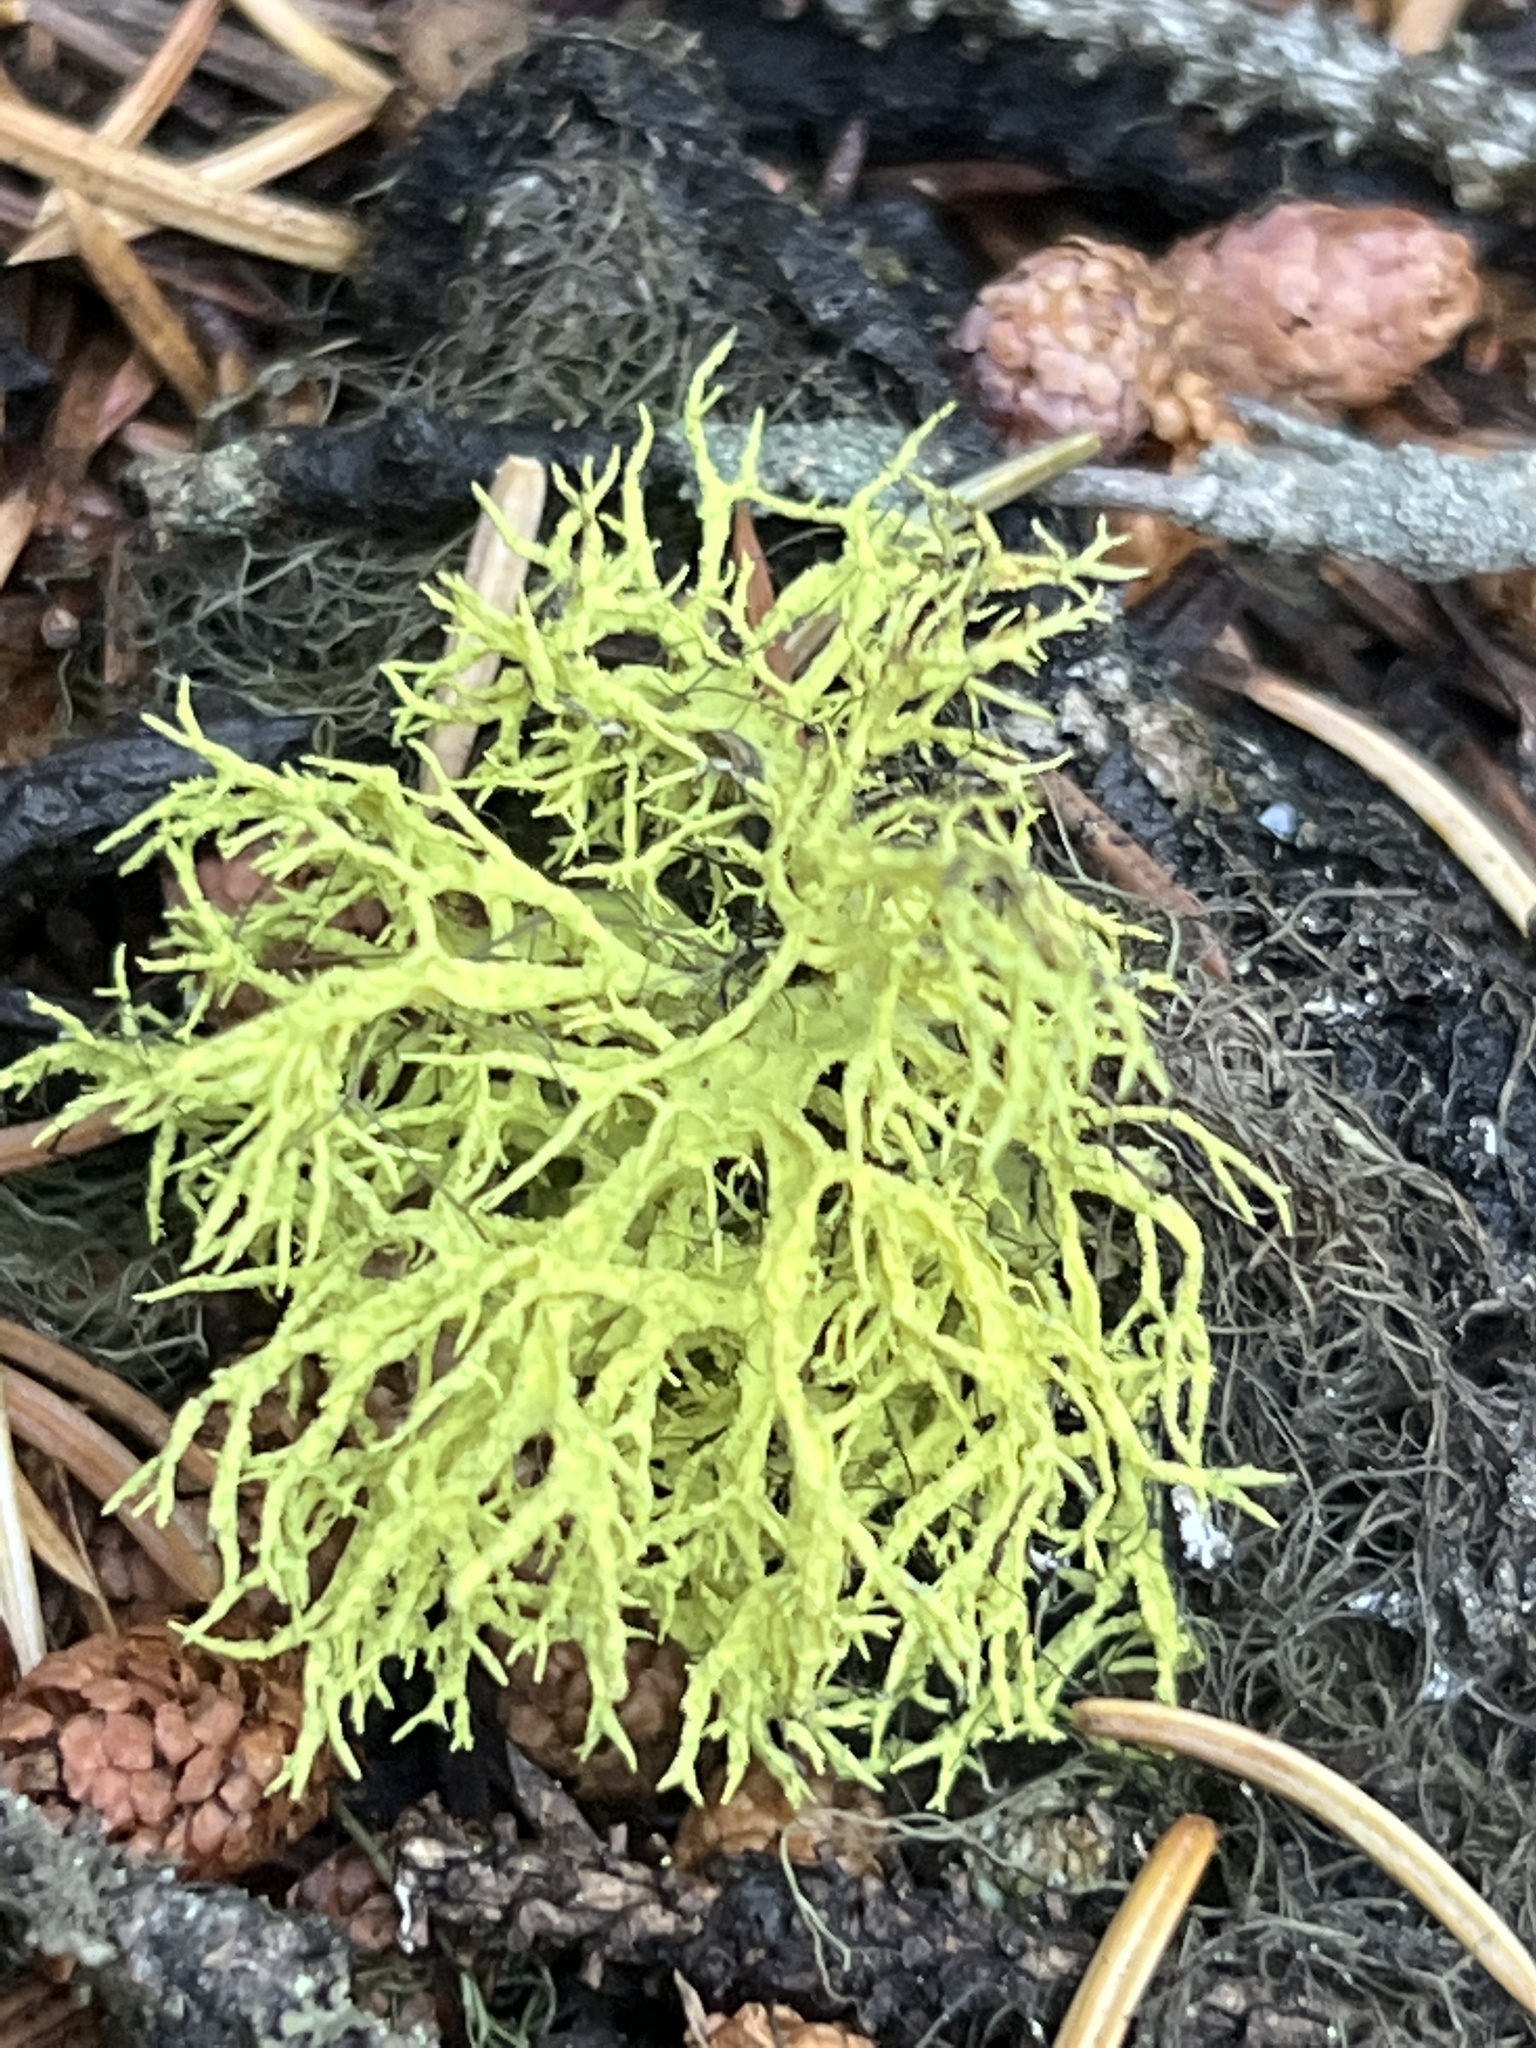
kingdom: Fungi
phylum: Ascomycota
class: Lecanoromycetes
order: Lecanorales
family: Parmeliaceae
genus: Letharia
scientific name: Letharia vulpina
